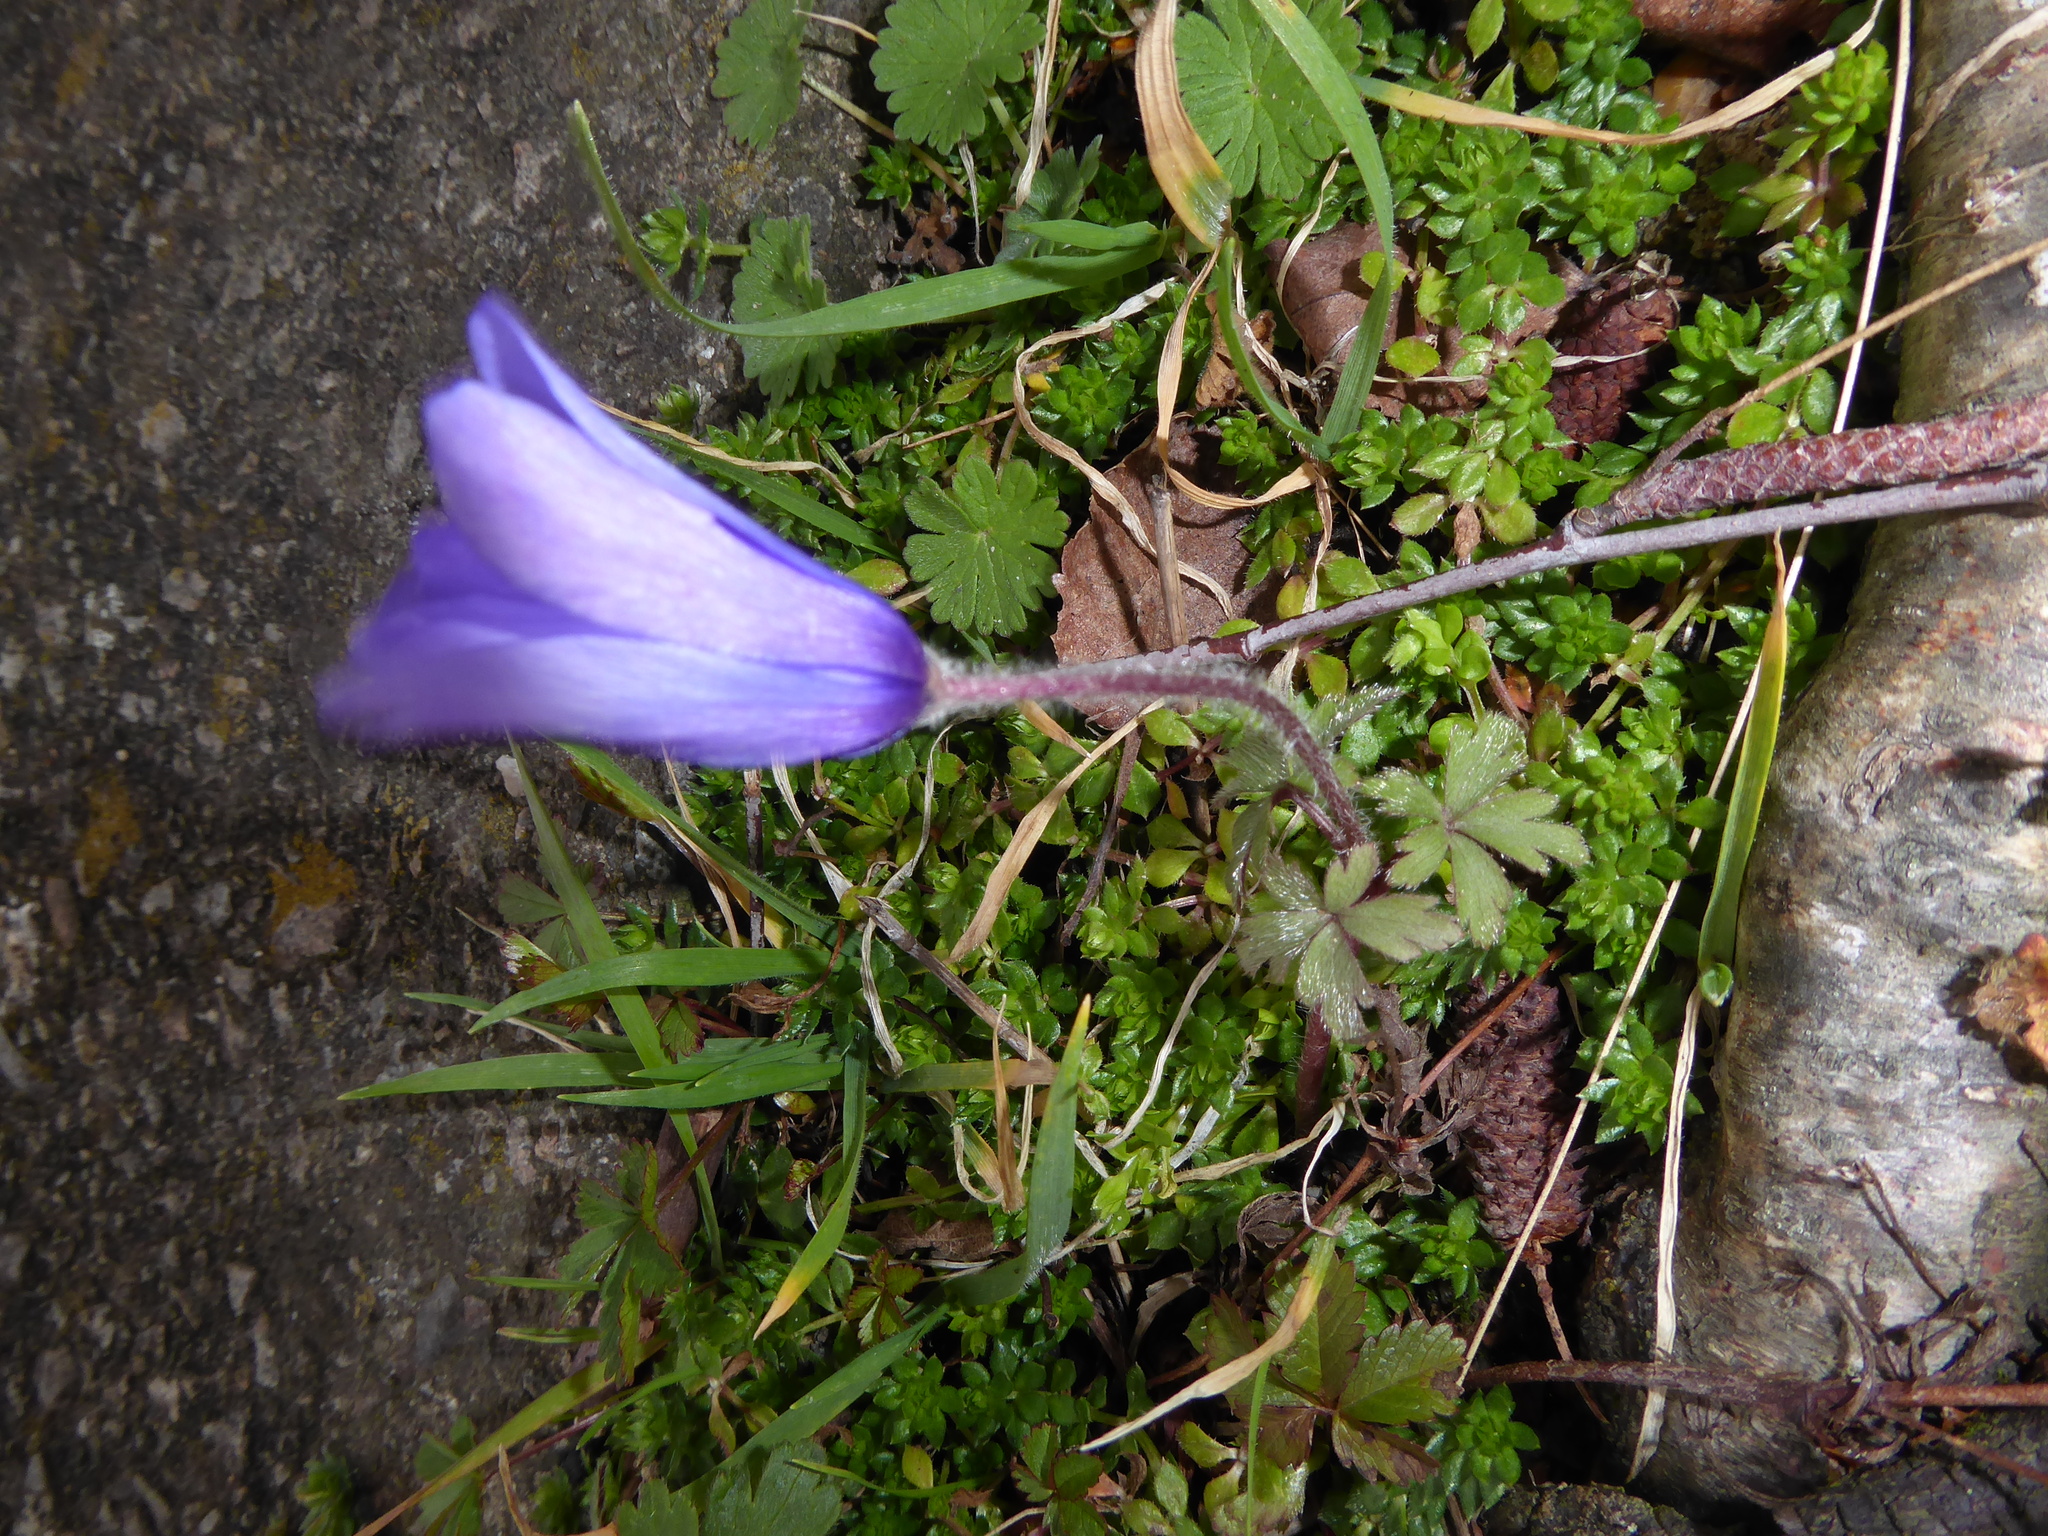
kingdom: Plantae
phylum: Tracheophyta
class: Magnoliopsida
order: Ranunculales
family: Ranunculaceae
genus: Anemone
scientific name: Anemone blanda
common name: Balkan anemone
